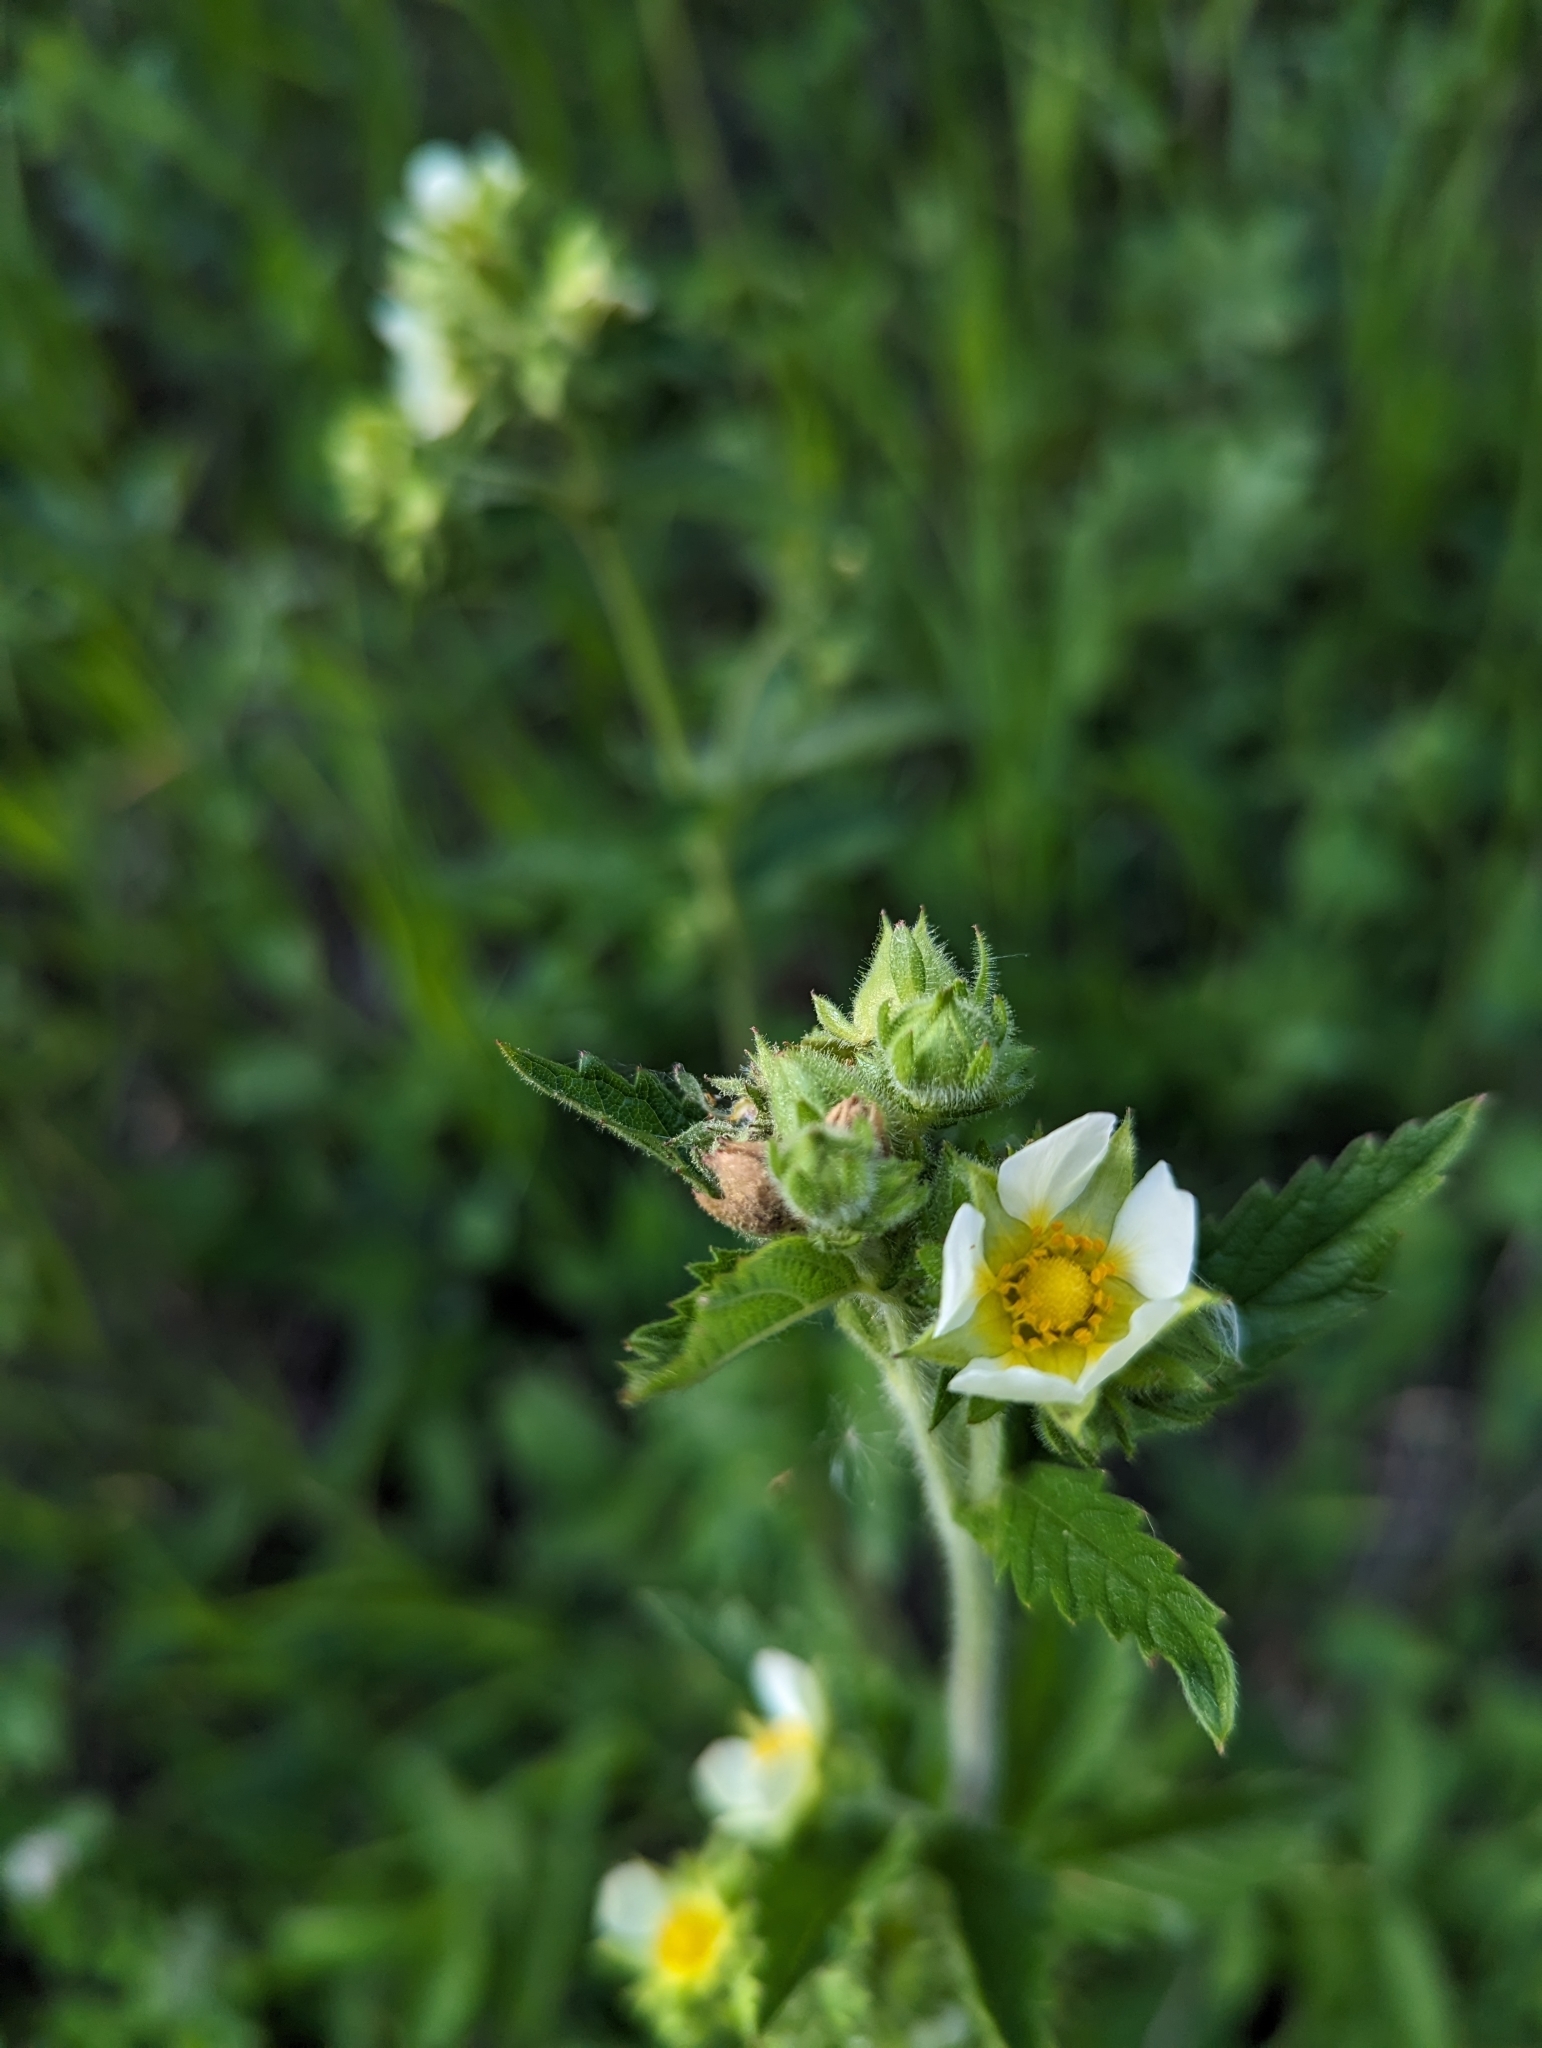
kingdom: Plantae
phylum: Tracheophyta
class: Magnoliopsida
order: Rosales
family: Rosaceae
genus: Drymocallis
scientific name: Drymocallis arguta
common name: Tall cinquefoil
